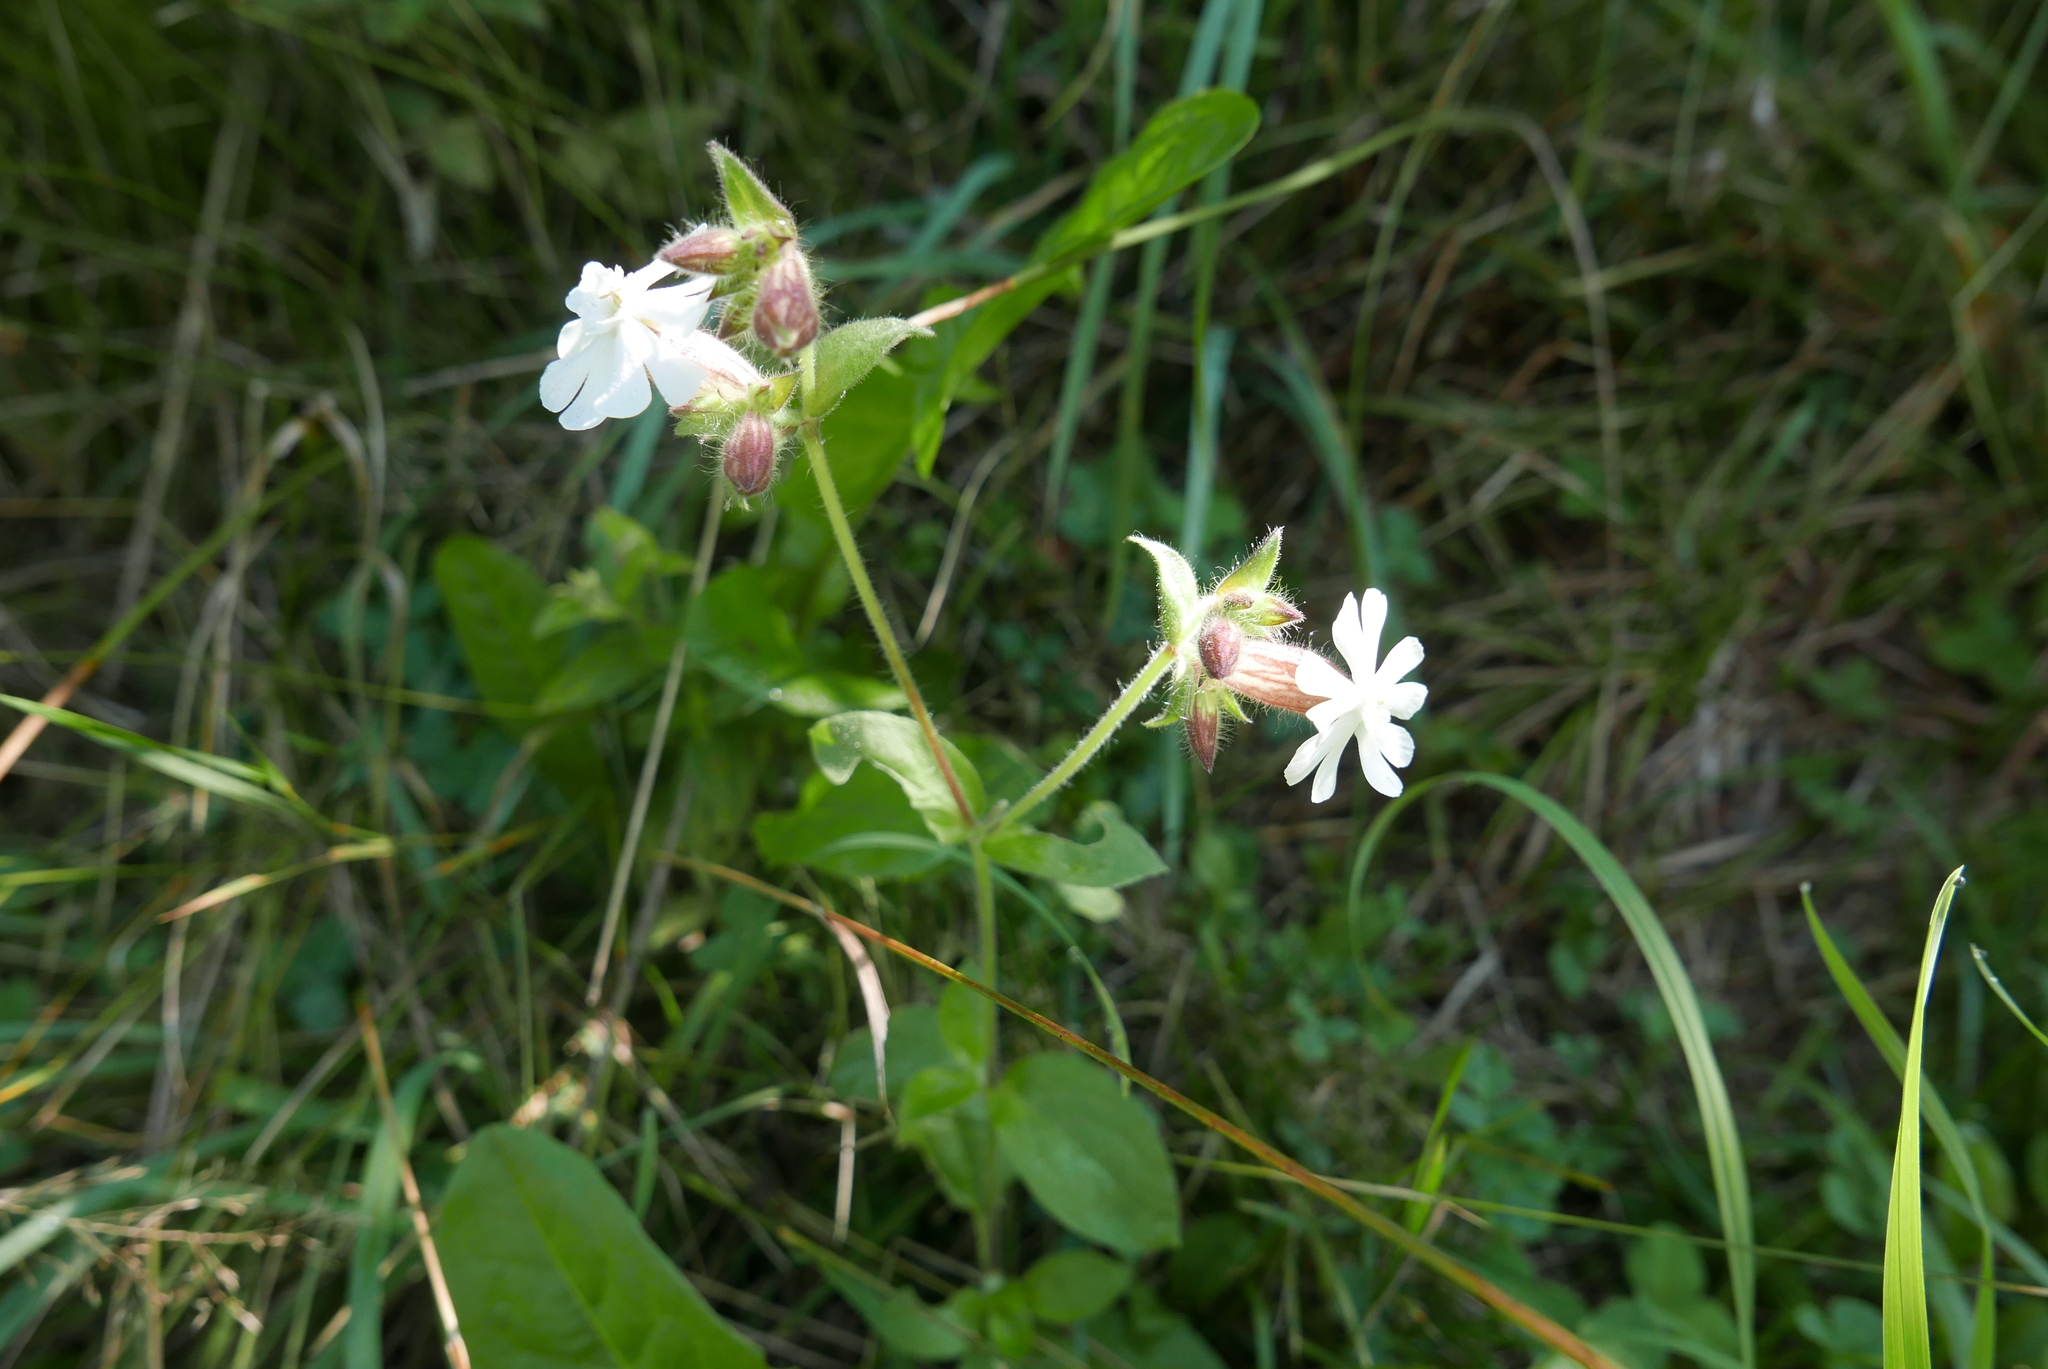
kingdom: Plantae
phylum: Tracheophyta
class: Magnoliopsida
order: Caryophyllales
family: Caryophyllaceae
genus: Silene
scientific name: Silene latifolia
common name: White campion
